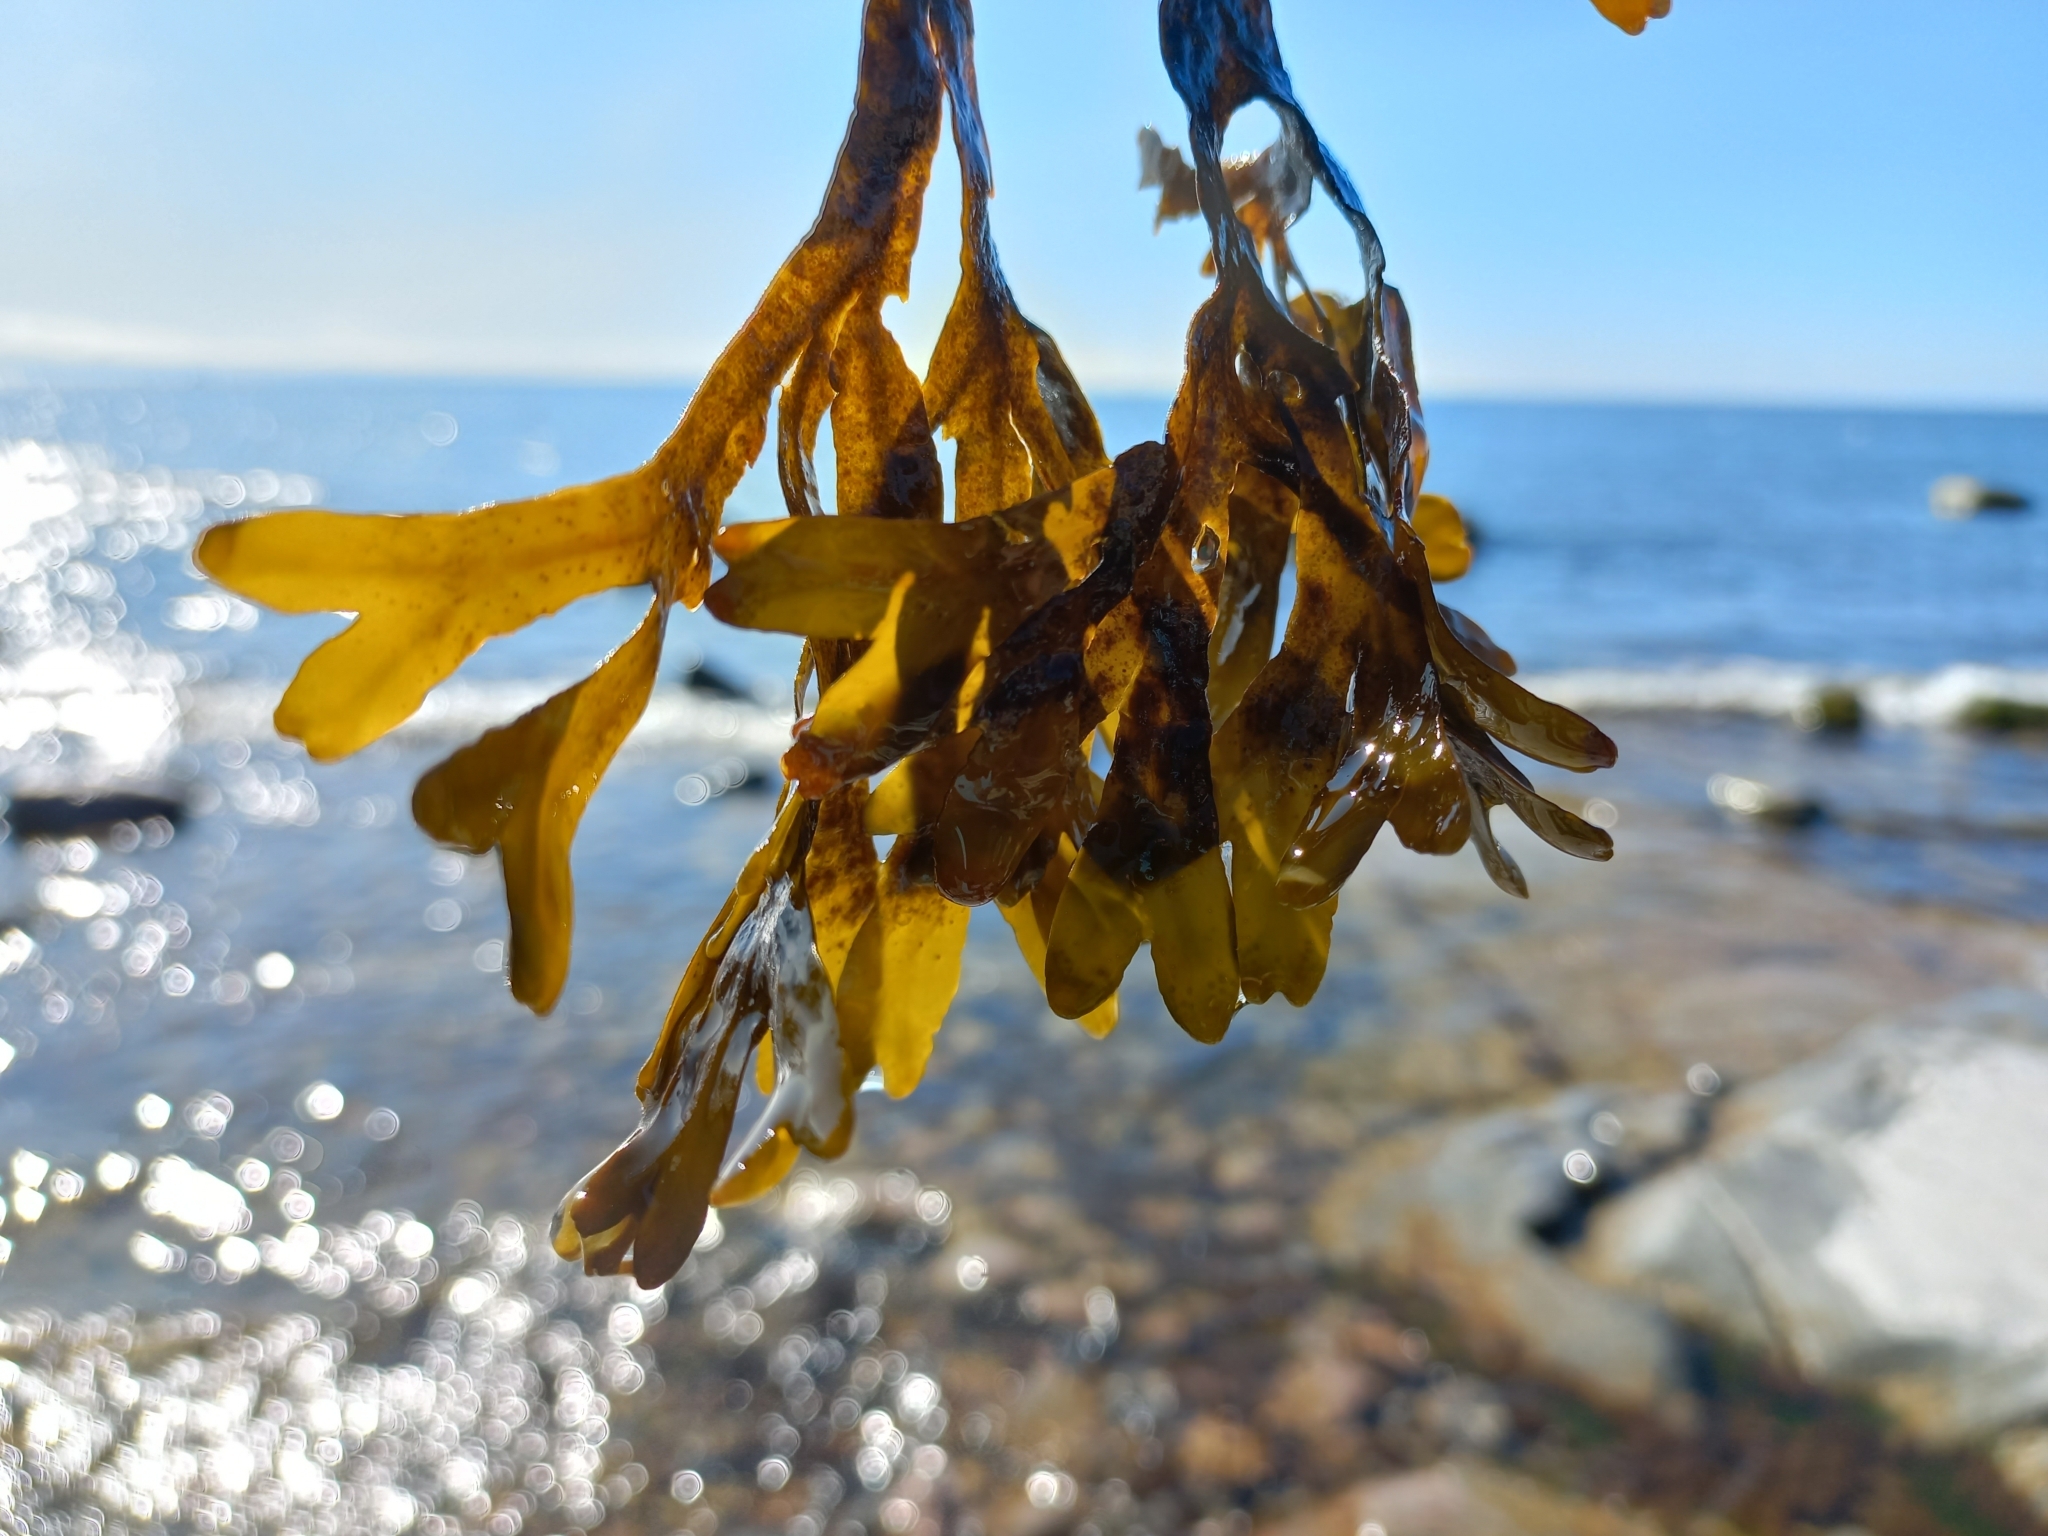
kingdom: Chromista
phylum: Ochrophyta
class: Phaeophyceae
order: Fucales
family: Fucaceae
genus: Fucus
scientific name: Fucus vesiculosus
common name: Bladder wrack
